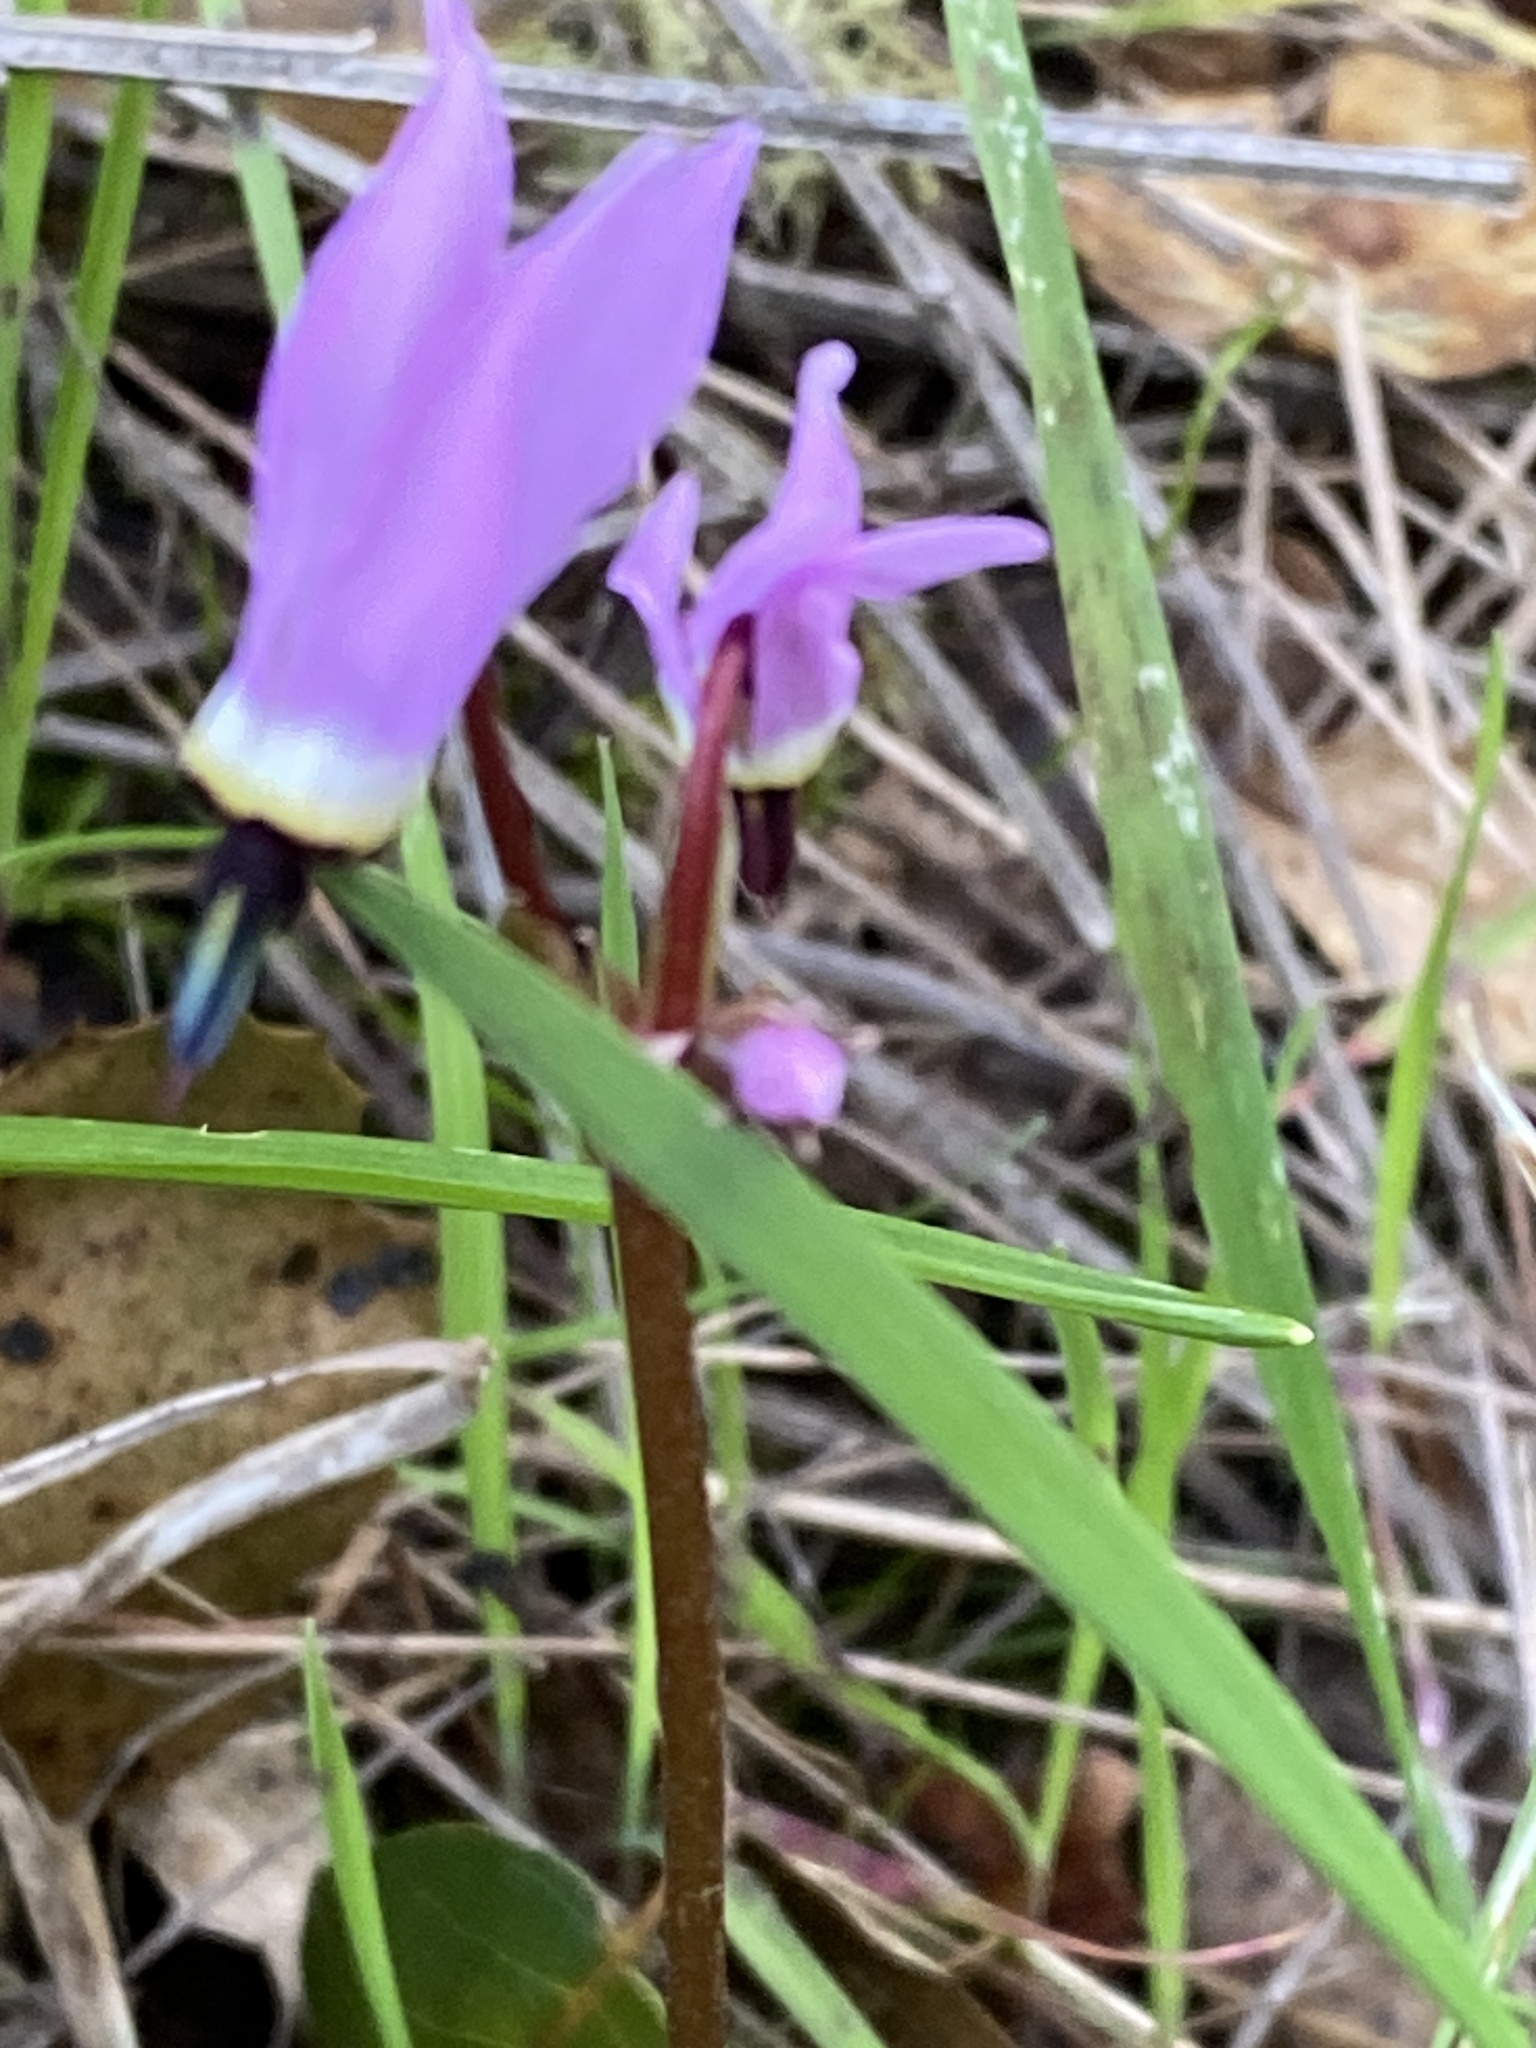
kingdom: Plantae
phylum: Tracheophyta
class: Magnoliopsida
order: Ericales
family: Primulaceae
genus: Dodecatheon
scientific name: Dodecatheon hendersonii
